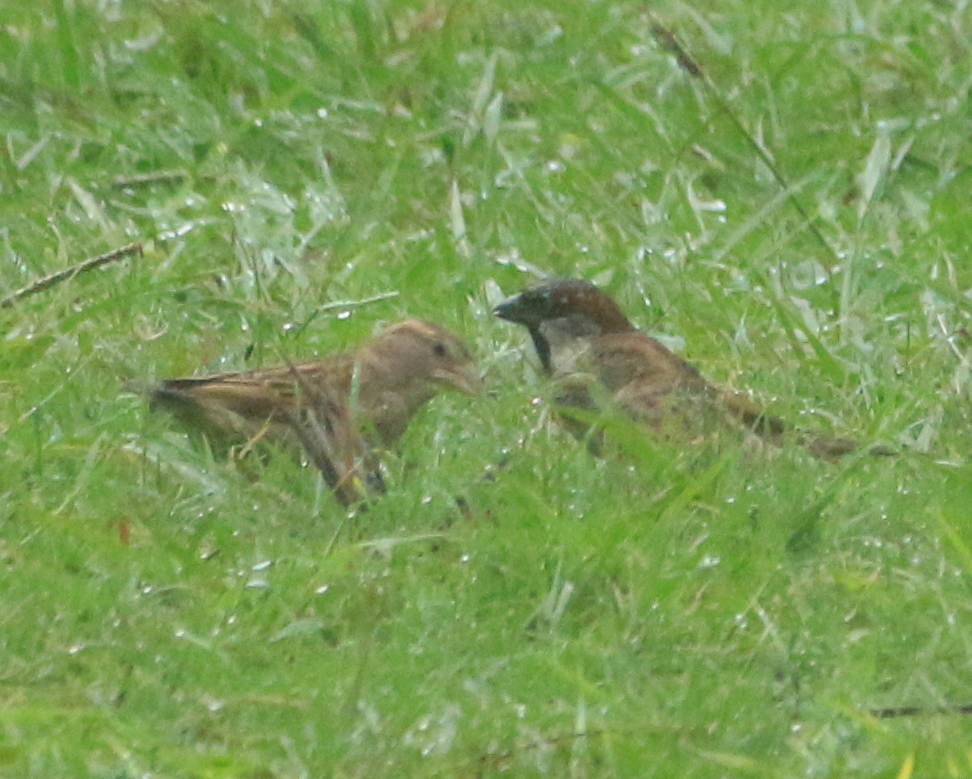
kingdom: Animalia
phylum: Chordata
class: Aves
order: Passeriformes
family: Passeridae
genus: Passer
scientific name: Passer domesticus
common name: House sparrow
